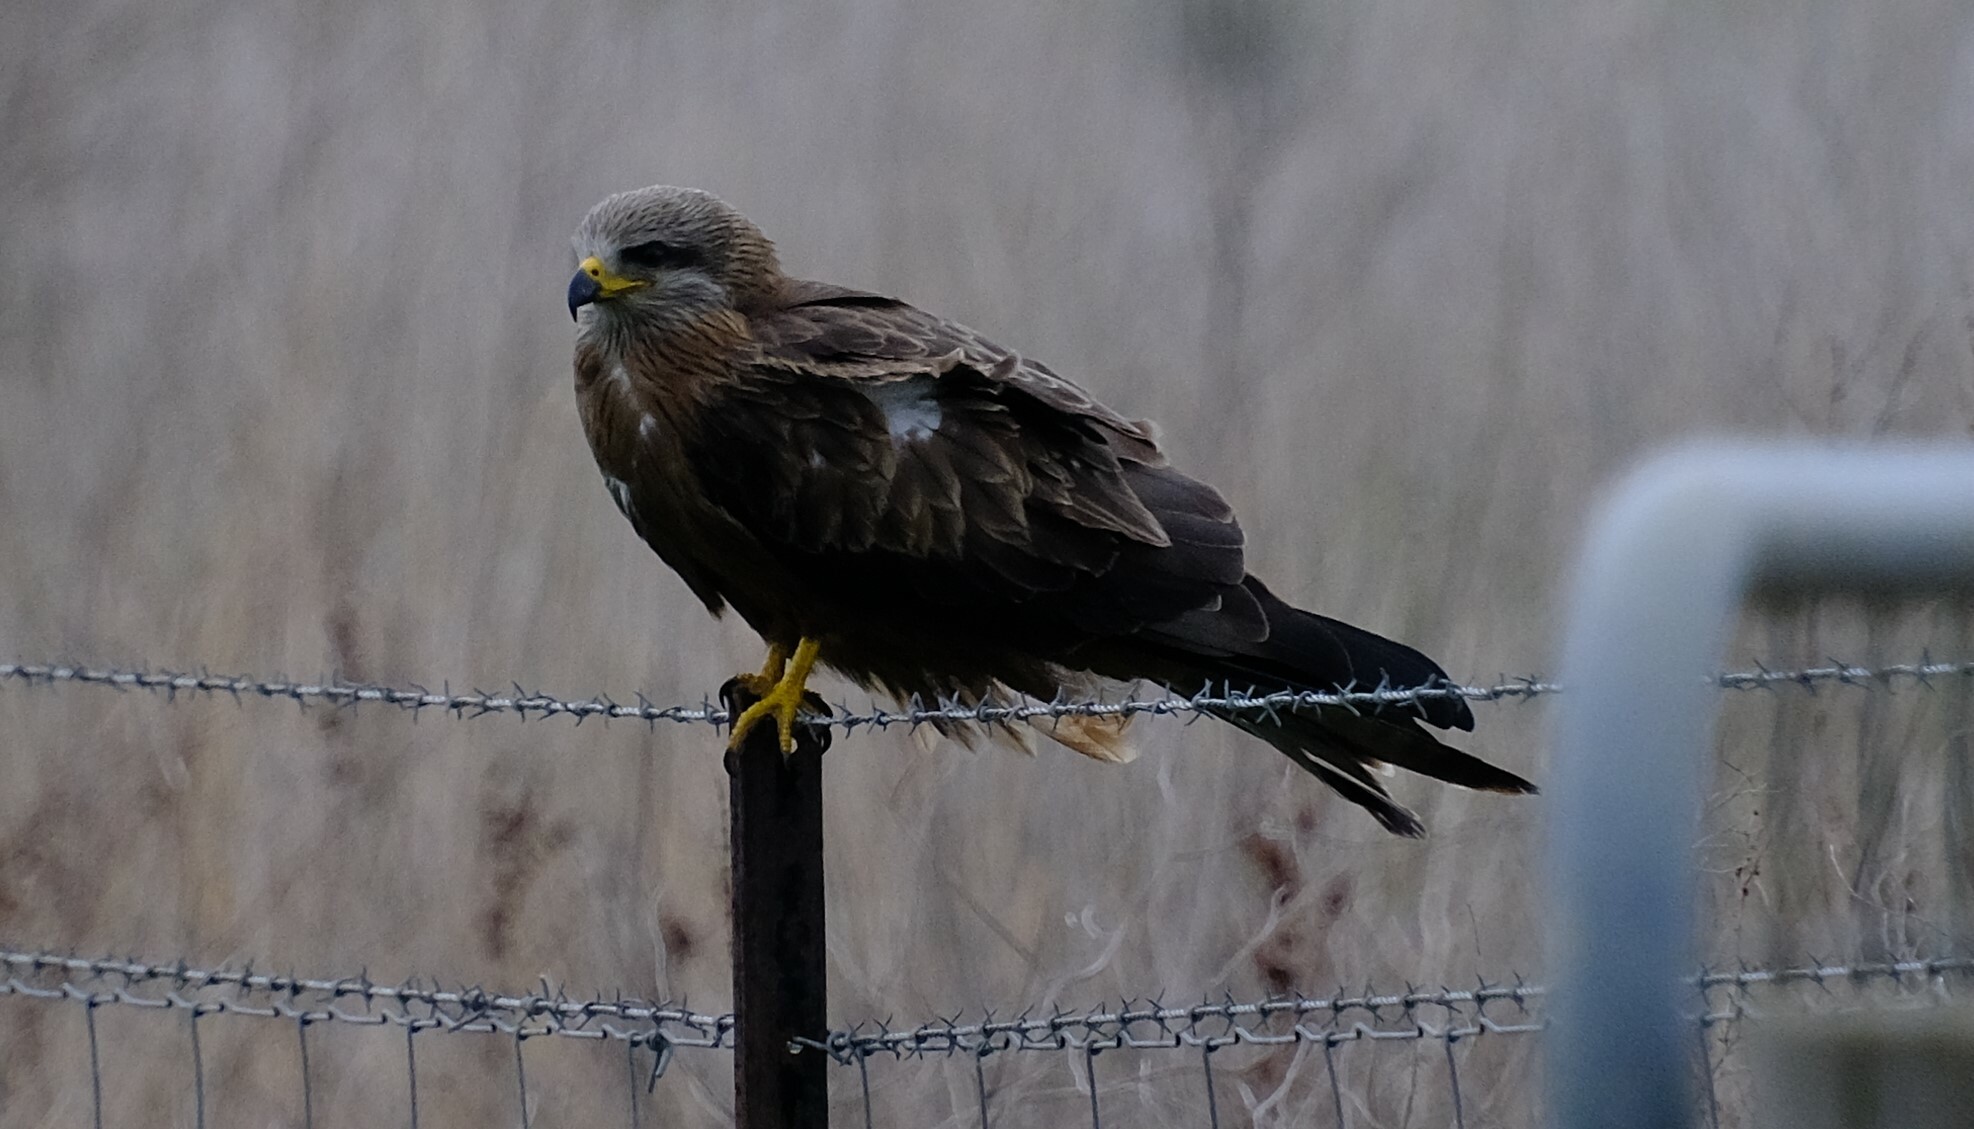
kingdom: Animalia
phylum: Chordata
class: Aves
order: Accipitriformes
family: Accipitridae
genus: Milvus
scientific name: Milvus migrans
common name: Black kite
